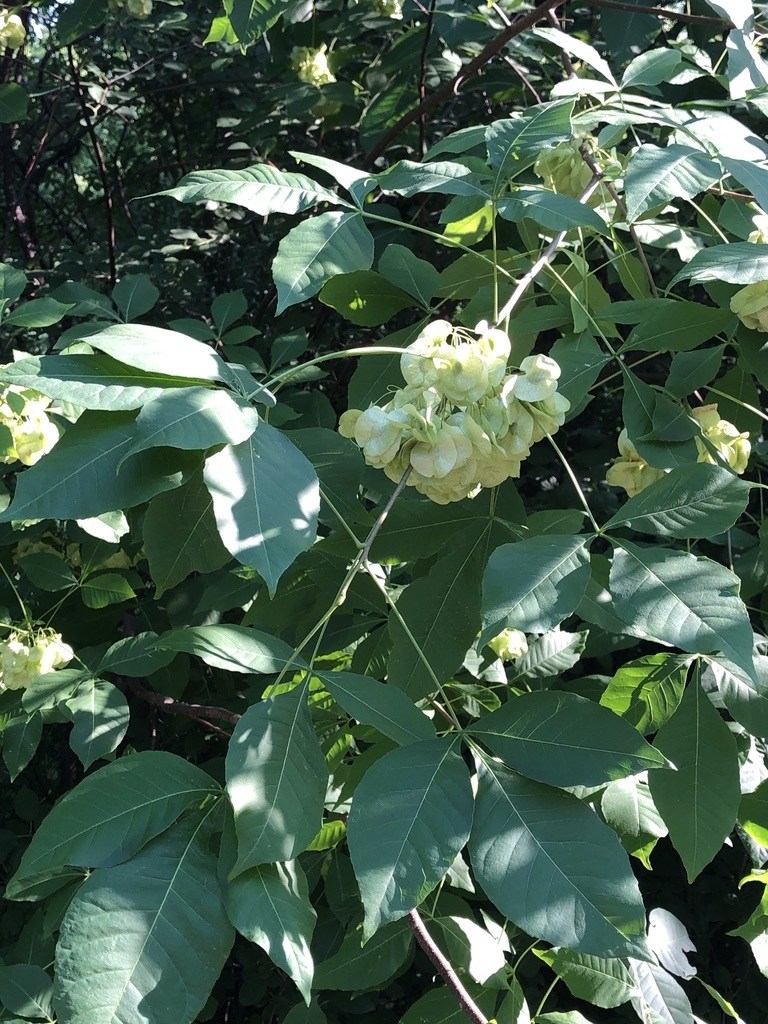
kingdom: Plantae
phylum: Tracheophyta
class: Magnoliopsida
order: Sapindales
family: Rutaceae
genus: Ptelea
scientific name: Ptelea trifoliata
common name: Common hop-tree
